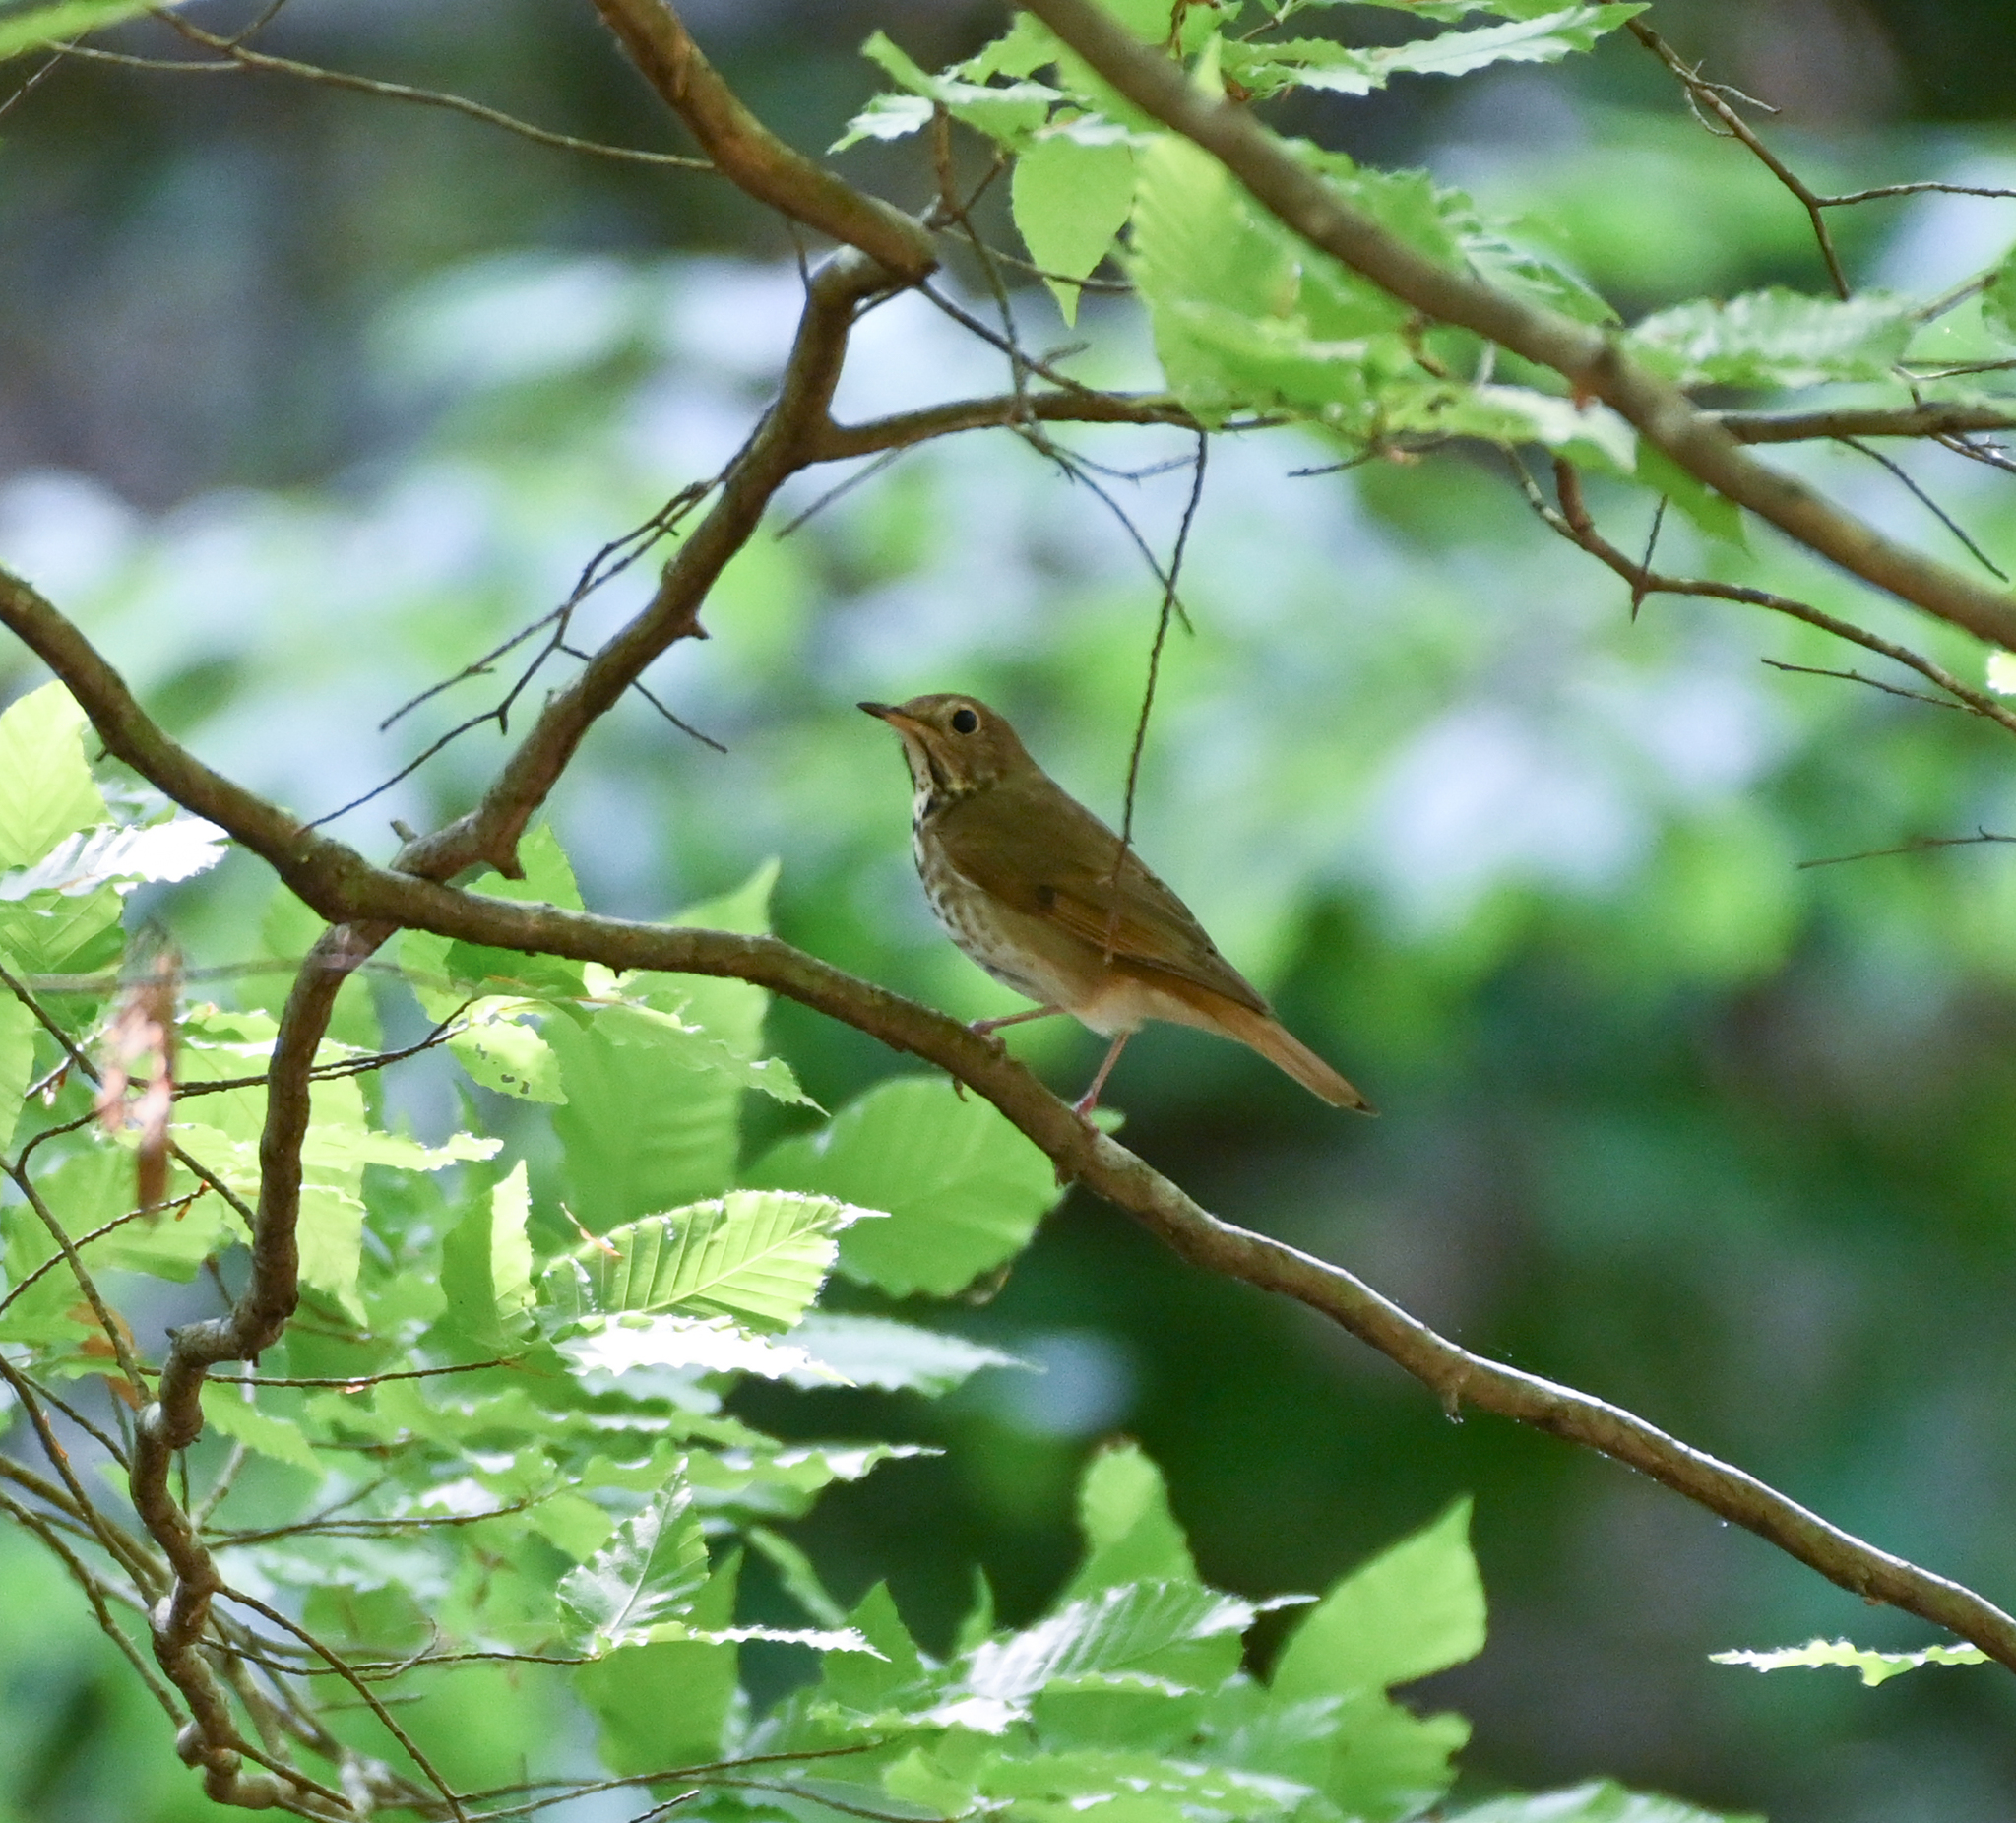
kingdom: Animalia
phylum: Chordata
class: Aves
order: Passeriformes
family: Turdidae
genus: Catharus
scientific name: Catharus guttatus
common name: Hermit thrush
